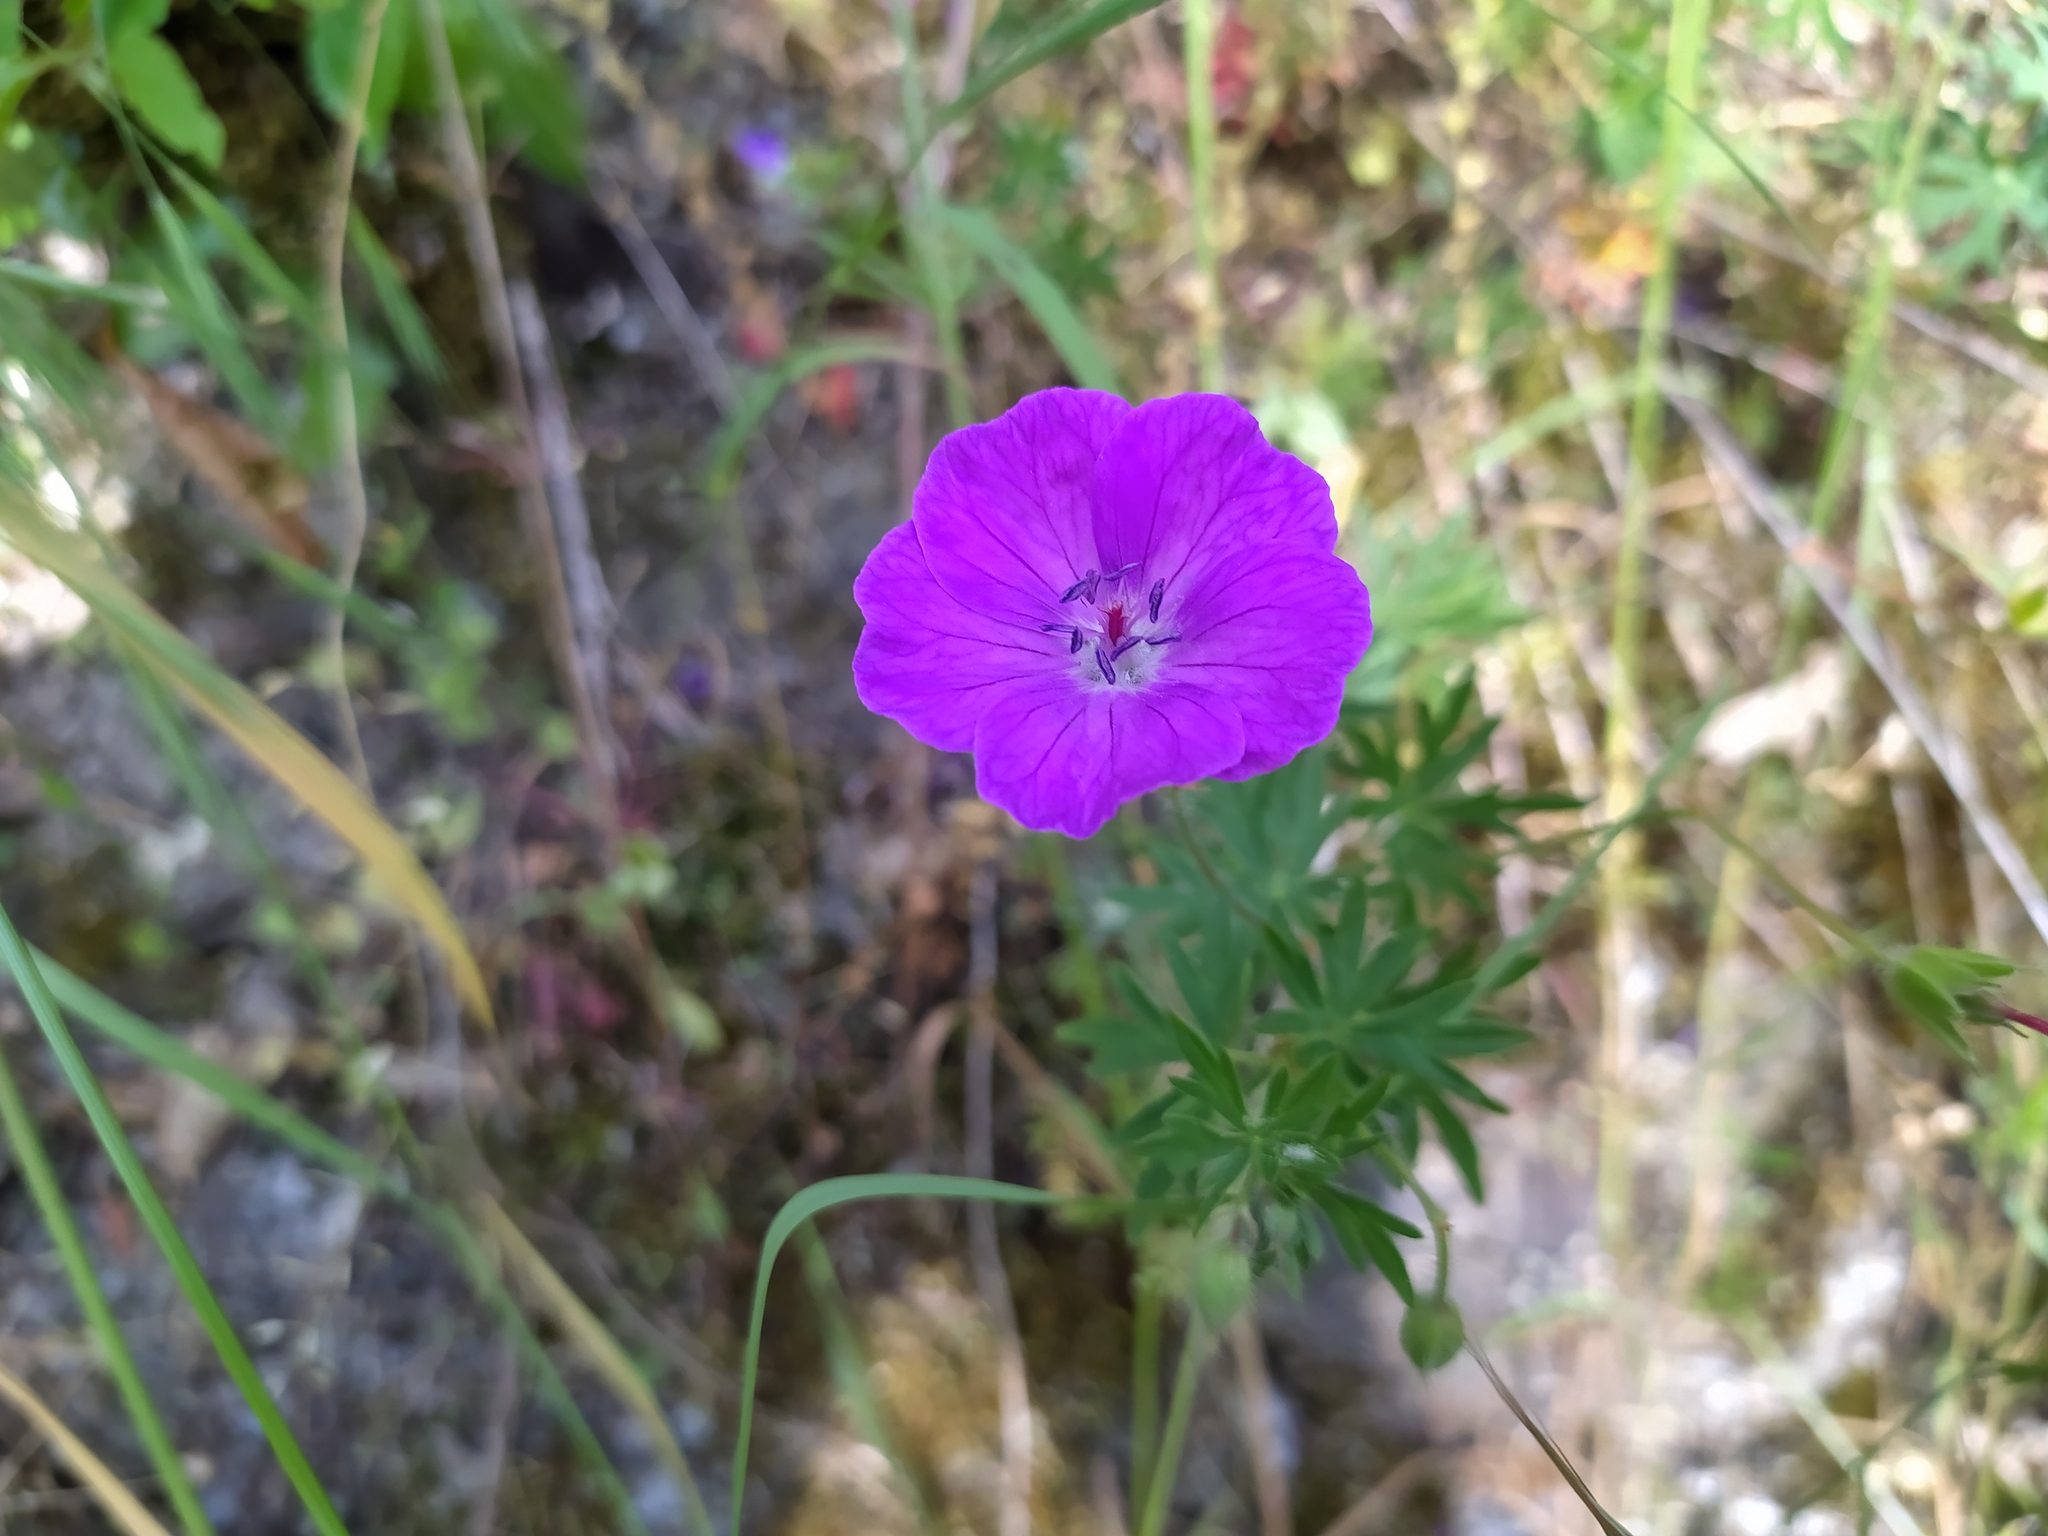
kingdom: Plantae
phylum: Tracheophyta
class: Magnoliopsida
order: Geraniales
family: Geraniaceae
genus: Geranium
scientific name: Geranium sanguineum
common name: Bloody crane's-bill
